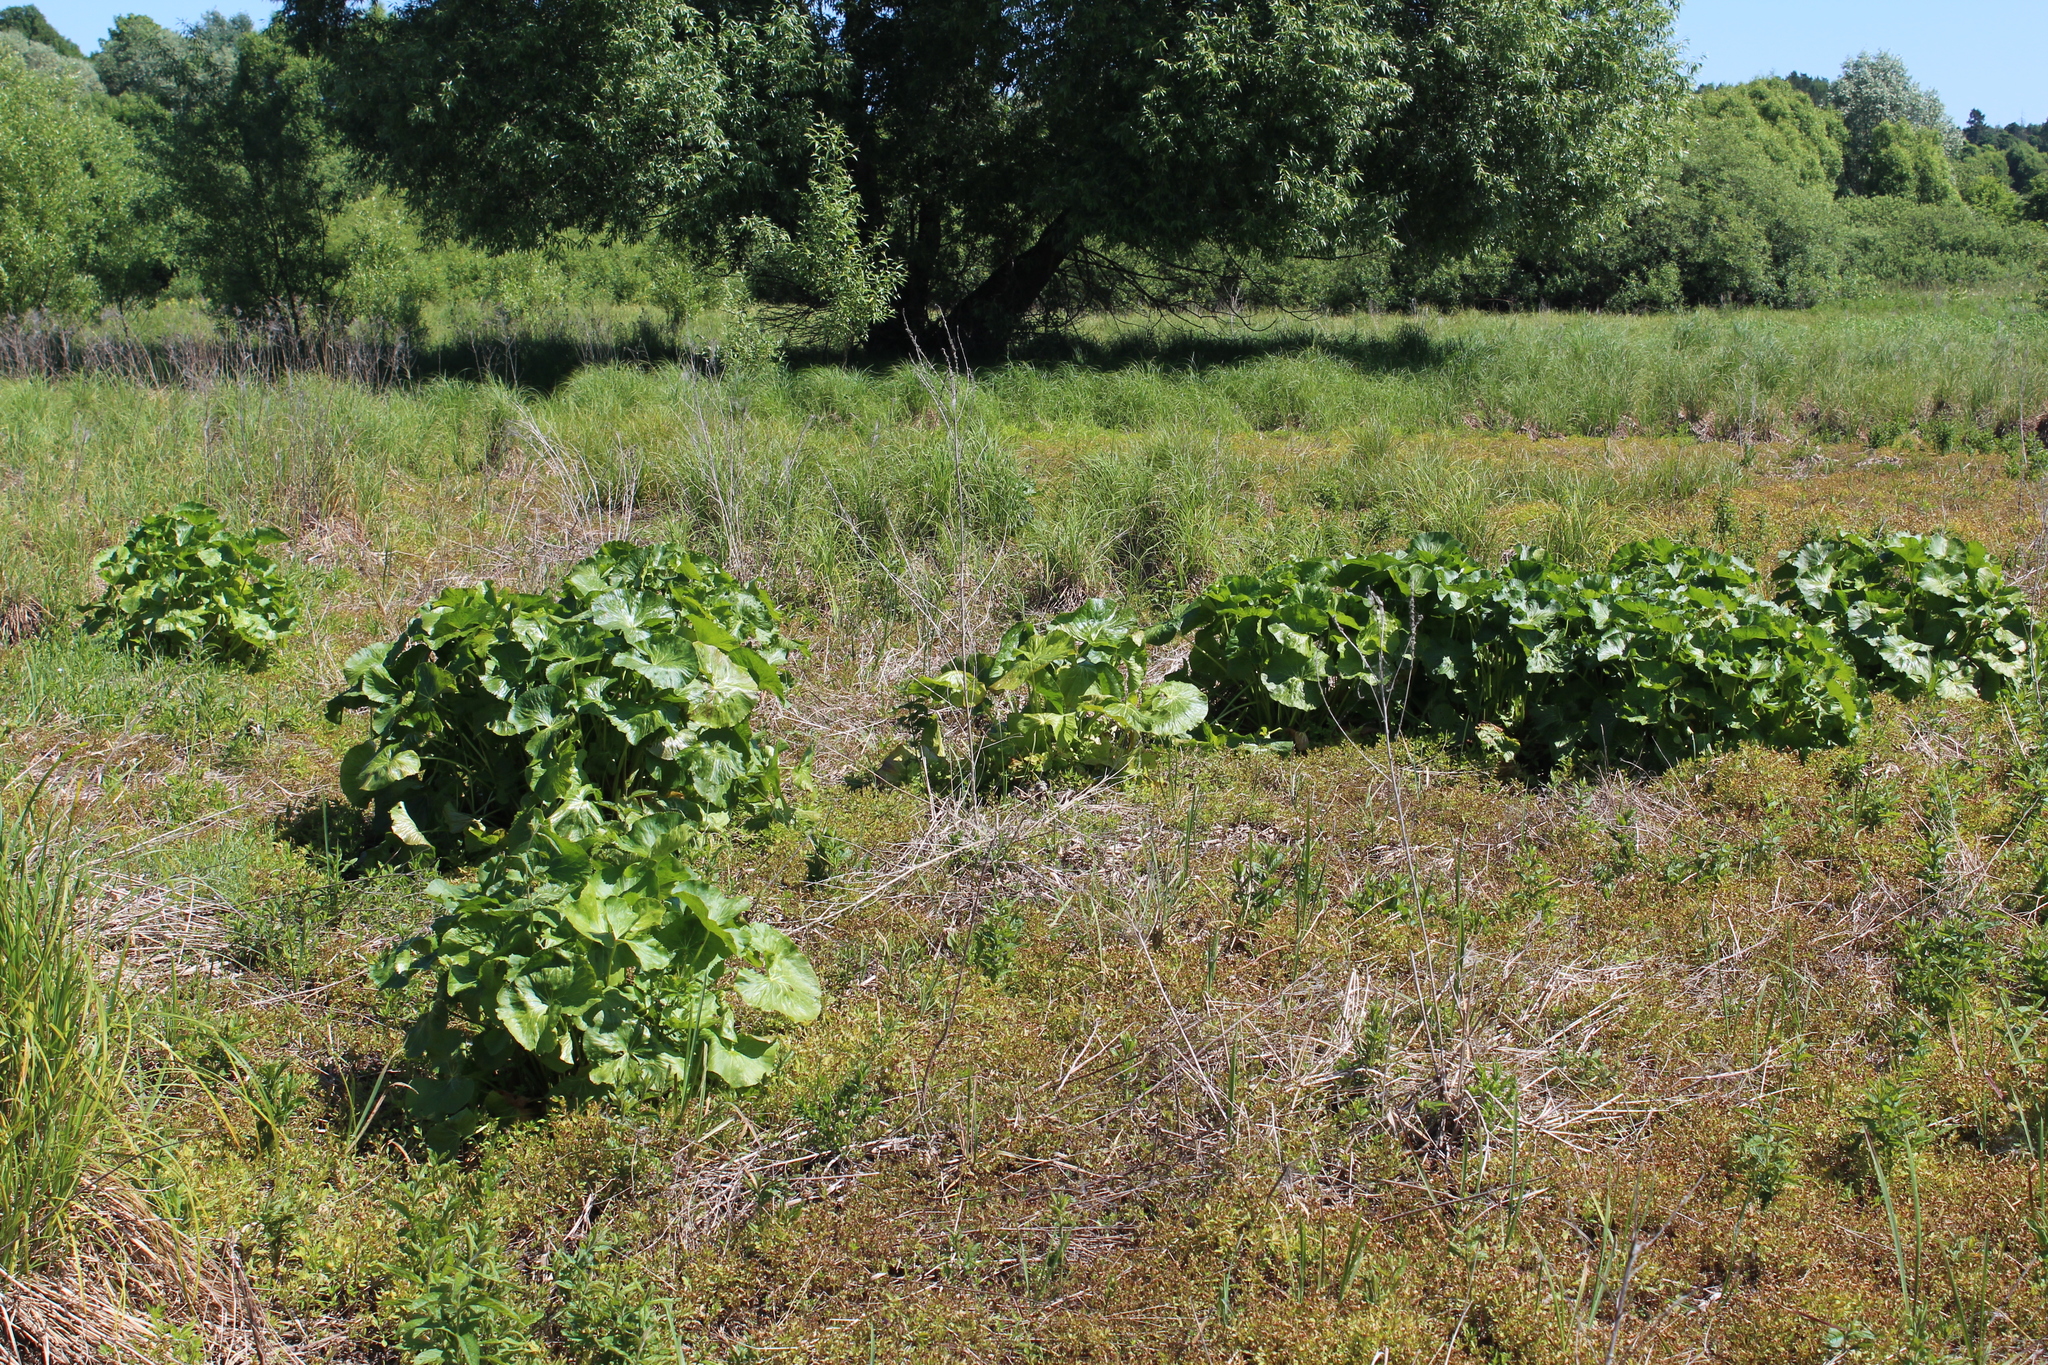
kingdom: Plantae
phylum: Tracheophyta
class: Magnoliopsida
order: Ranunculales
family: Ranunculaceae
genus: Caltha
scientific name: Caltha palustris
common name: Marsh marigold
